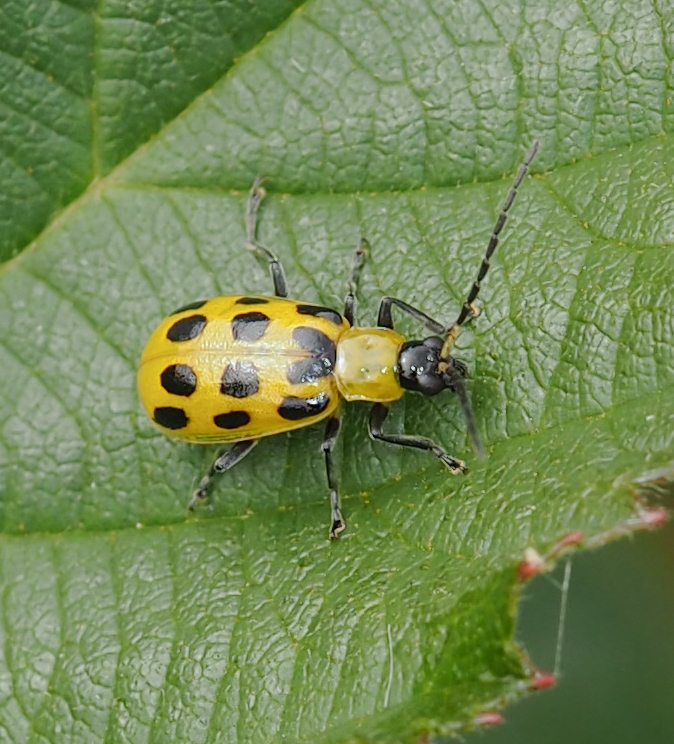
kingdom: Animalia
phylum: Arthropoda
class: Insecta
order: Coleoptera
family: Chrysomelidae
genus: Diabrotica
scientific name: Diabrotica undecimpunctata
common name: Spotted cucumber beetle
